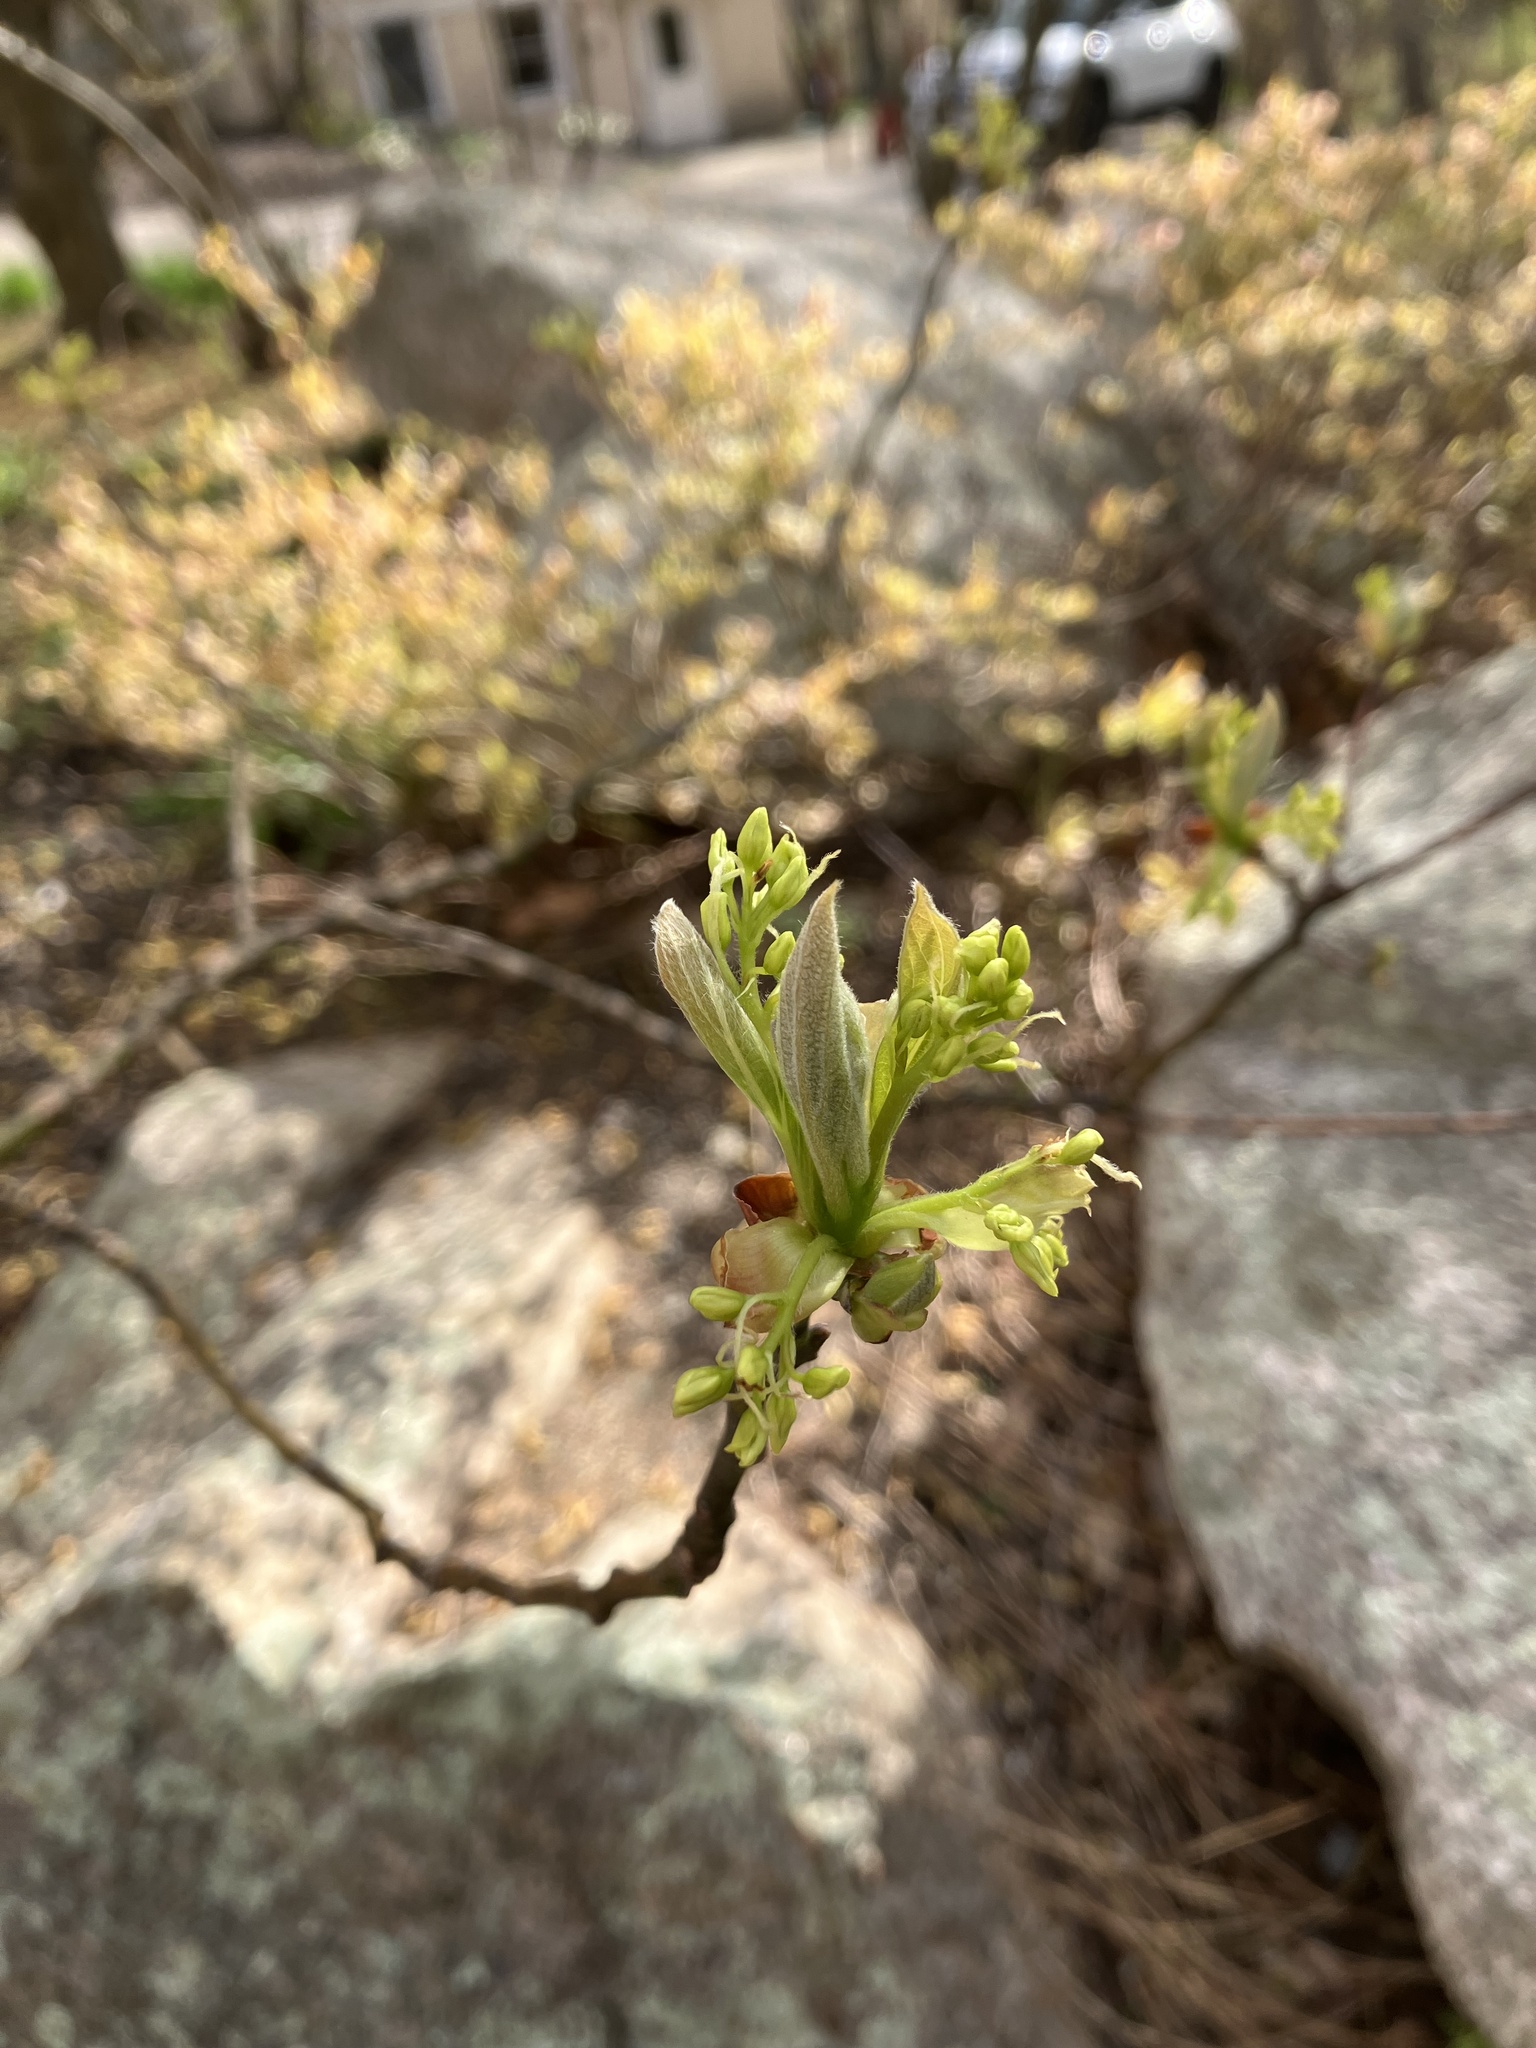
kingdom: Plantae
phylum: Tracheophyta
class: Magnoliopsida
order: Laurales
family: Lauraceae
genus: Sassafras
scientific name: Sassafras albidum
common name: Sassafras
